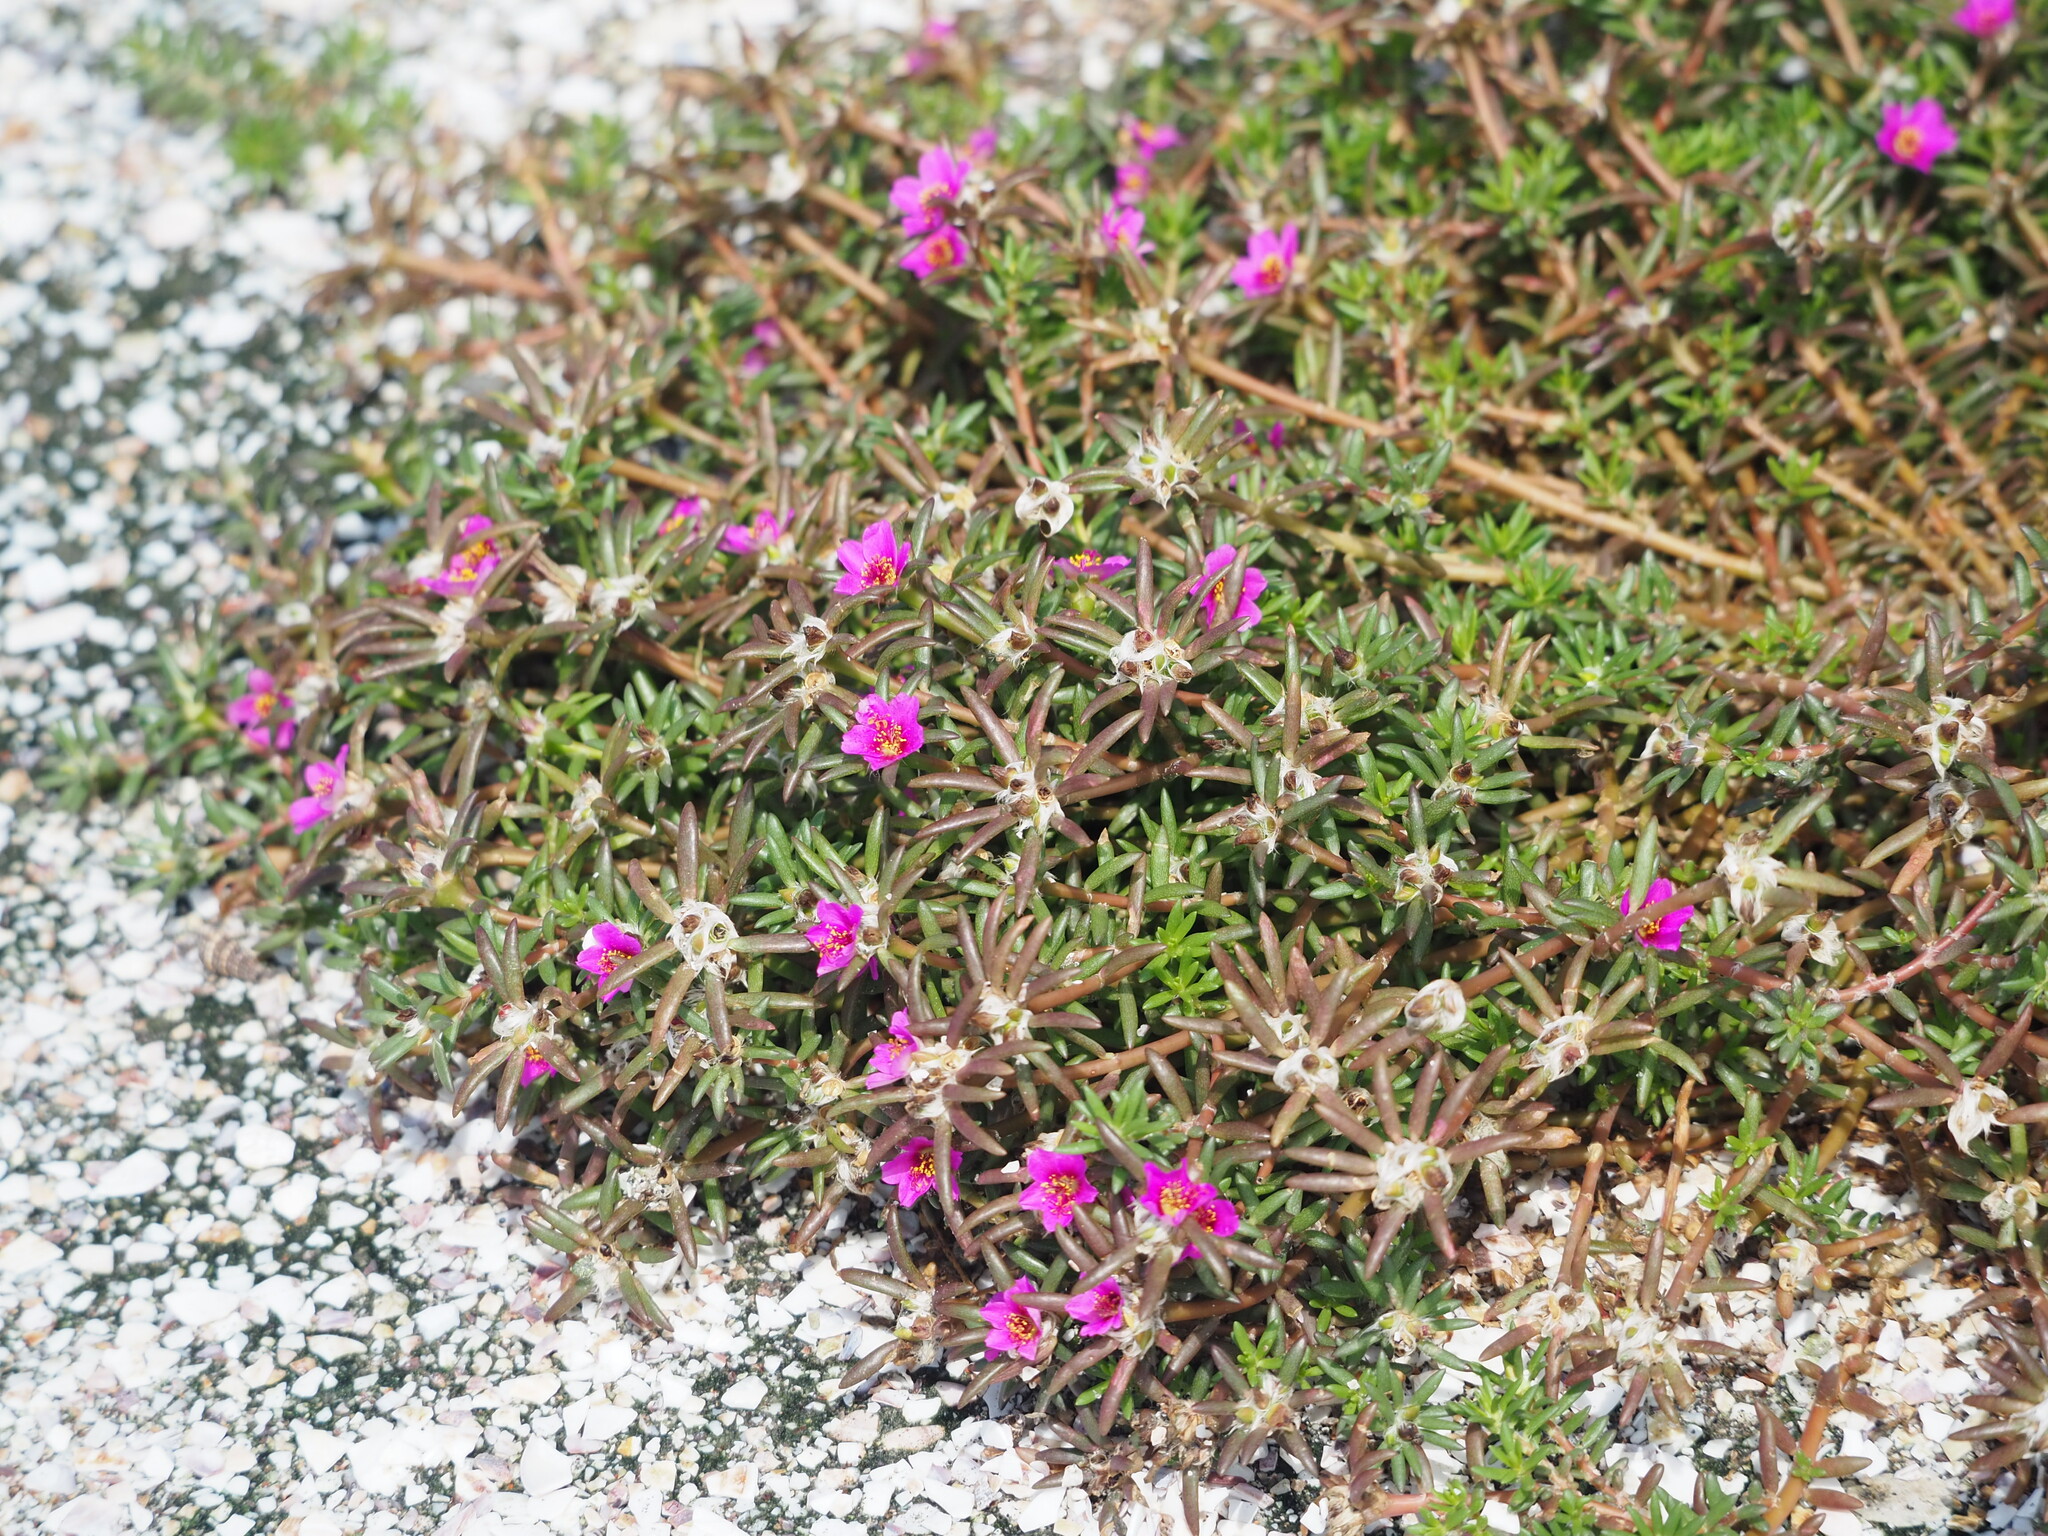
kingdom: Plantae
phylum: Tracheophyta
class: Magnoliopsida
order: Caryophyllales
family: Portulacaceae
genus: Portulaca
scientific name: Portulaca pilosa
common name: Kiss me quick
